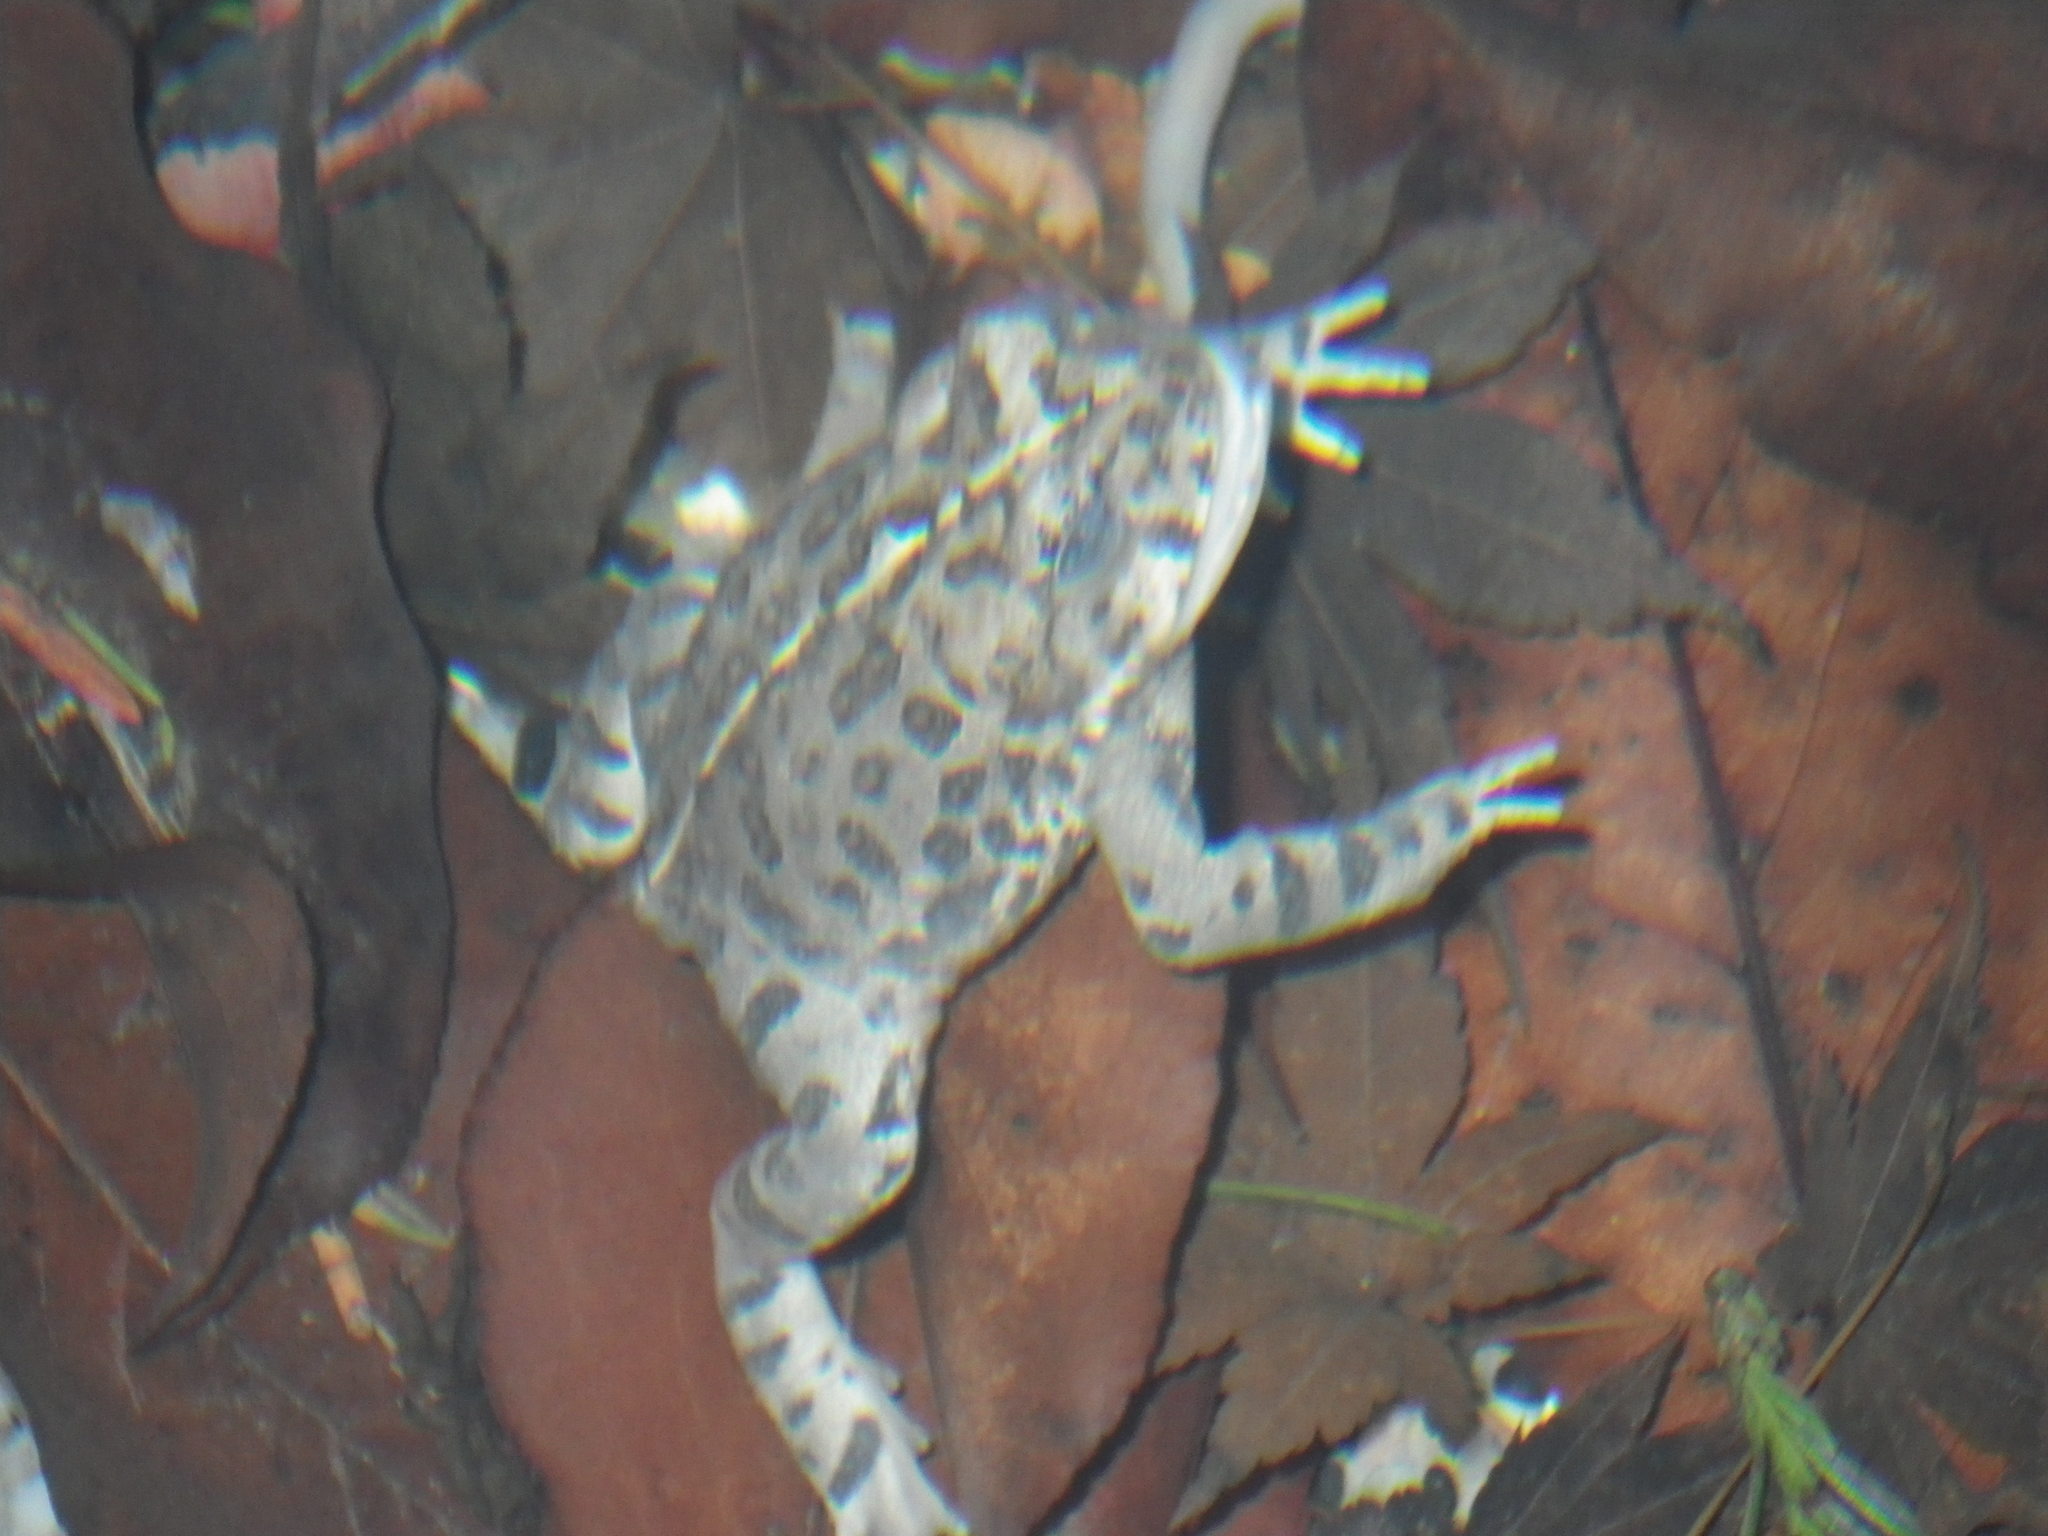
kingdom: Animalia
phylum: Chordata
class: Amphibia
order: Anura
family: Bufonidae
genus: Anaxyrus
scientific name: Anaxyrus boreas
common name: Western toad
